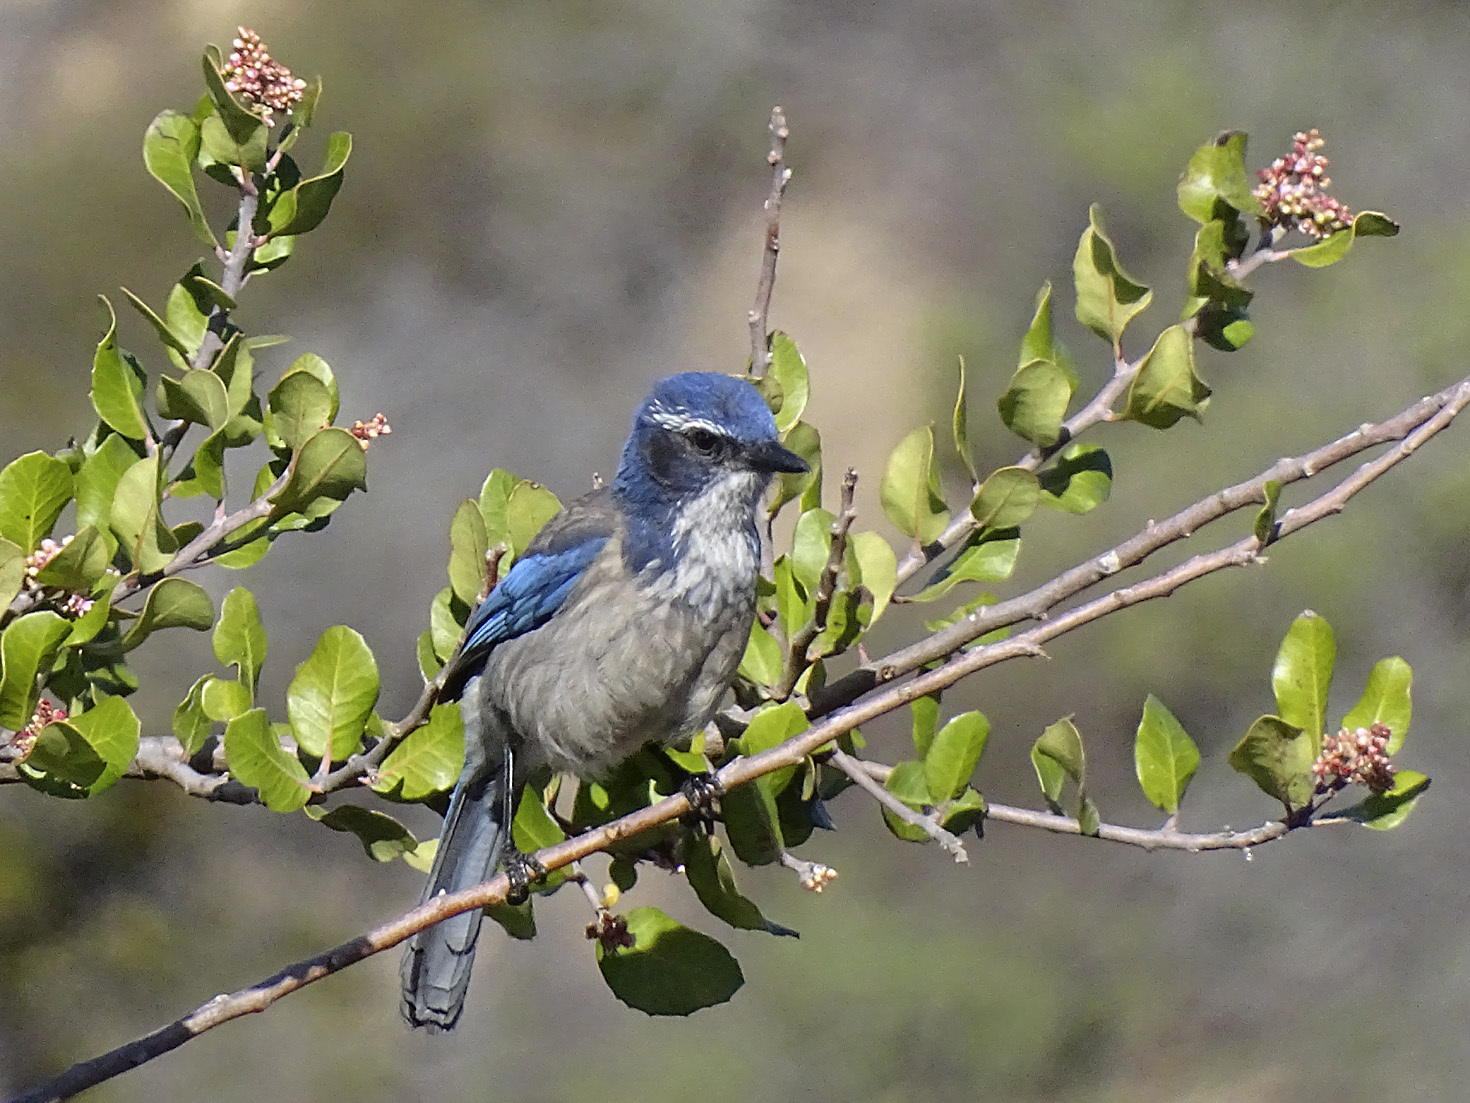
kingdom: Animalia
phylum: Chordata
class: Aves
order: Passeriformes
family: Corvidae
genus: Aphelocoma
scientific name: Aphelocoma californica
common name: California scrub-jay
